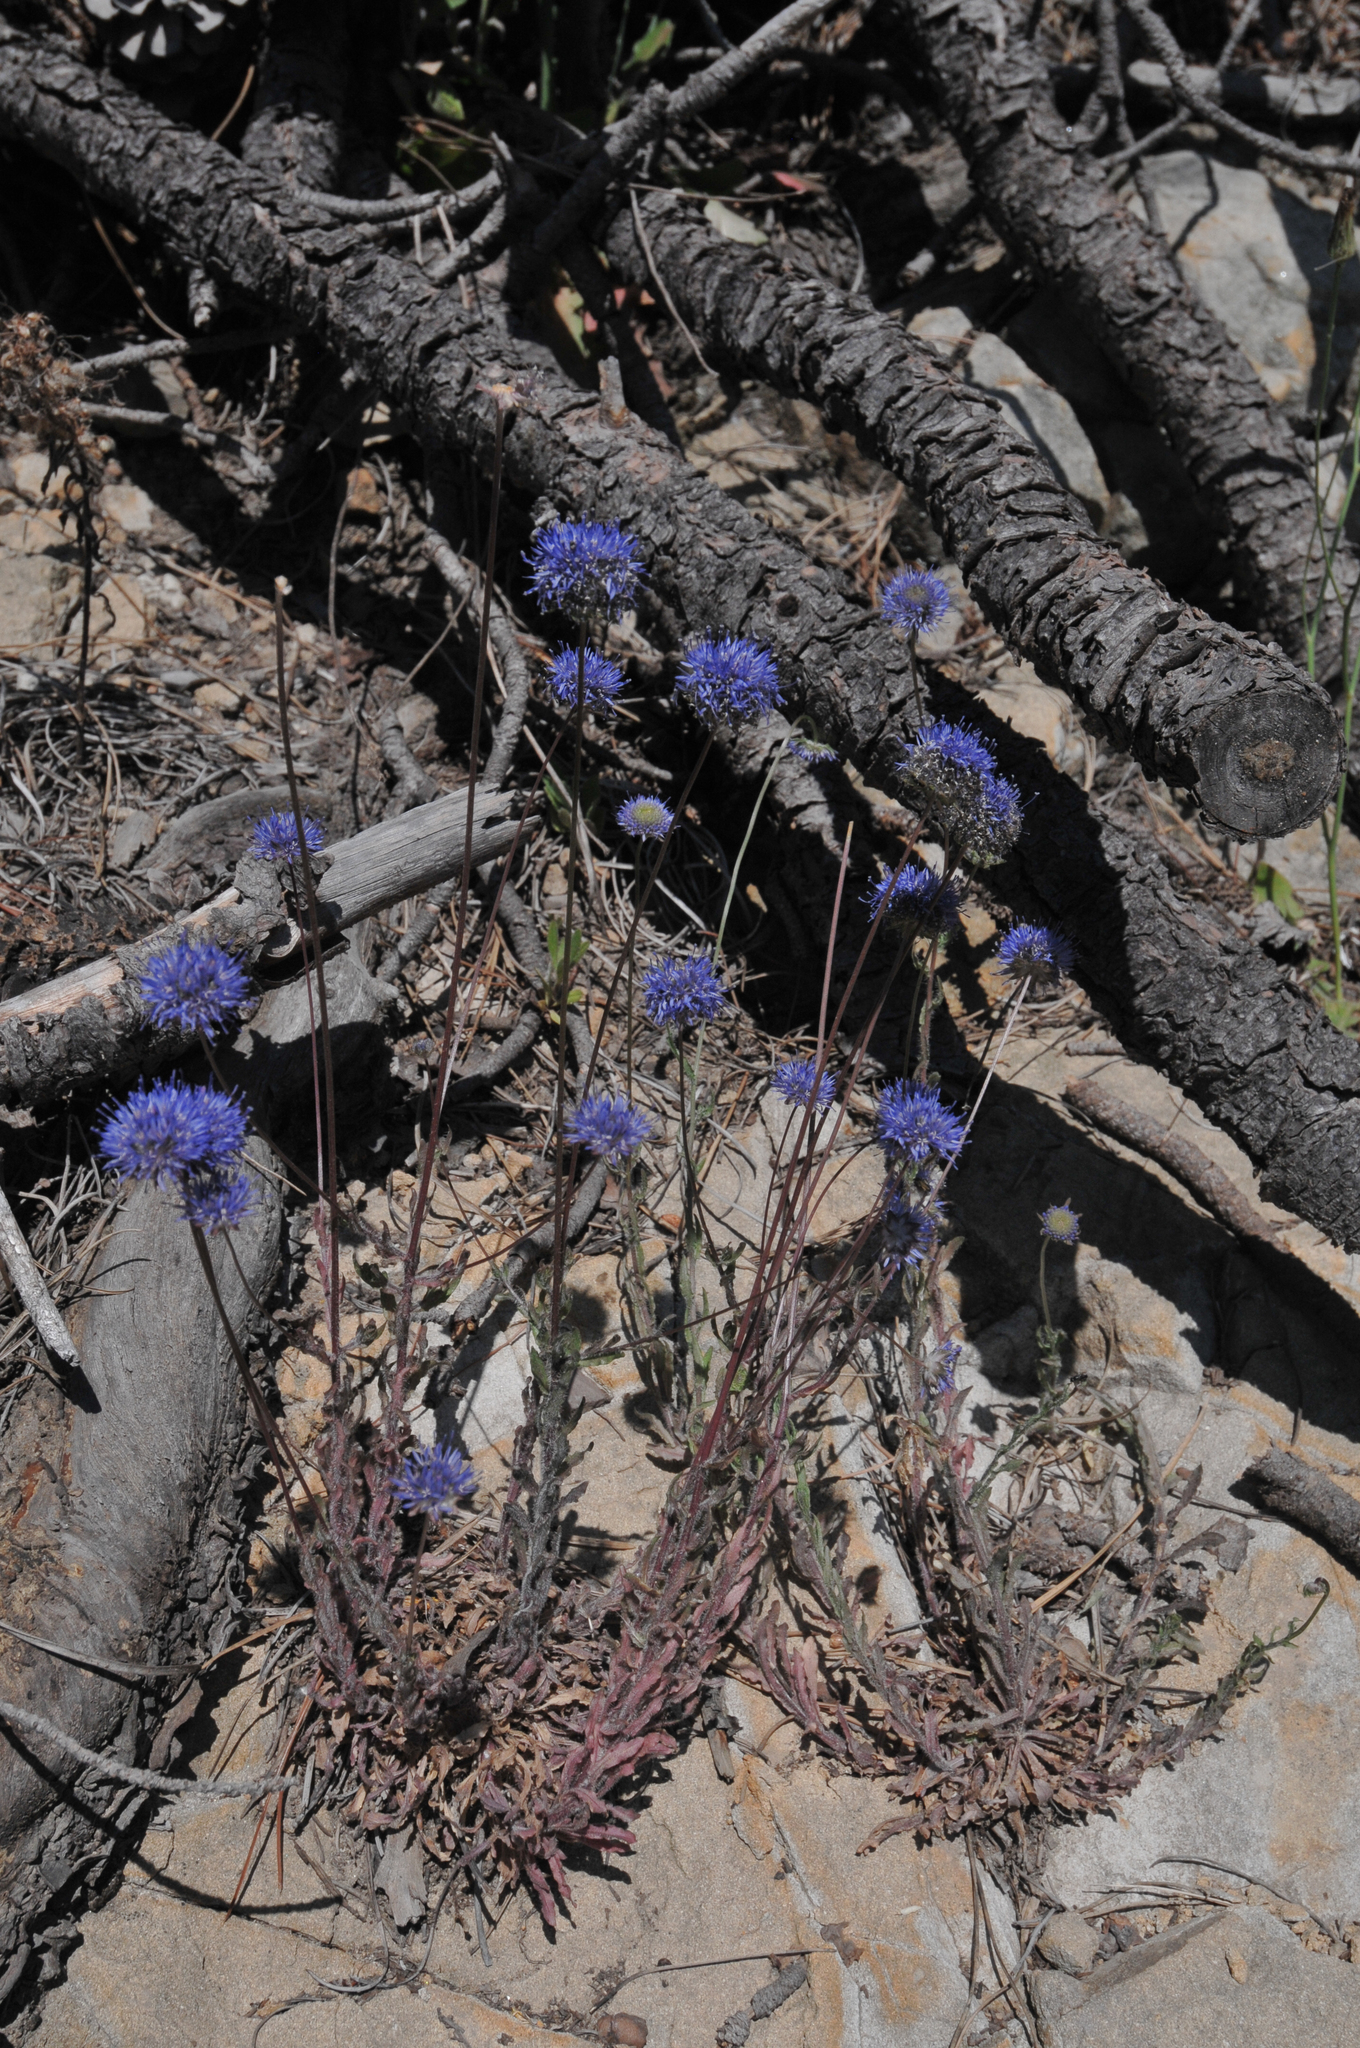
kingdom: Plantae
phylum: Tracheophyta
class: Magnoliopsida
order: Asterales
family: Campanulaceae
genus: Jasione
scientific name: Jasione montana
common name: Sheep's-bit
